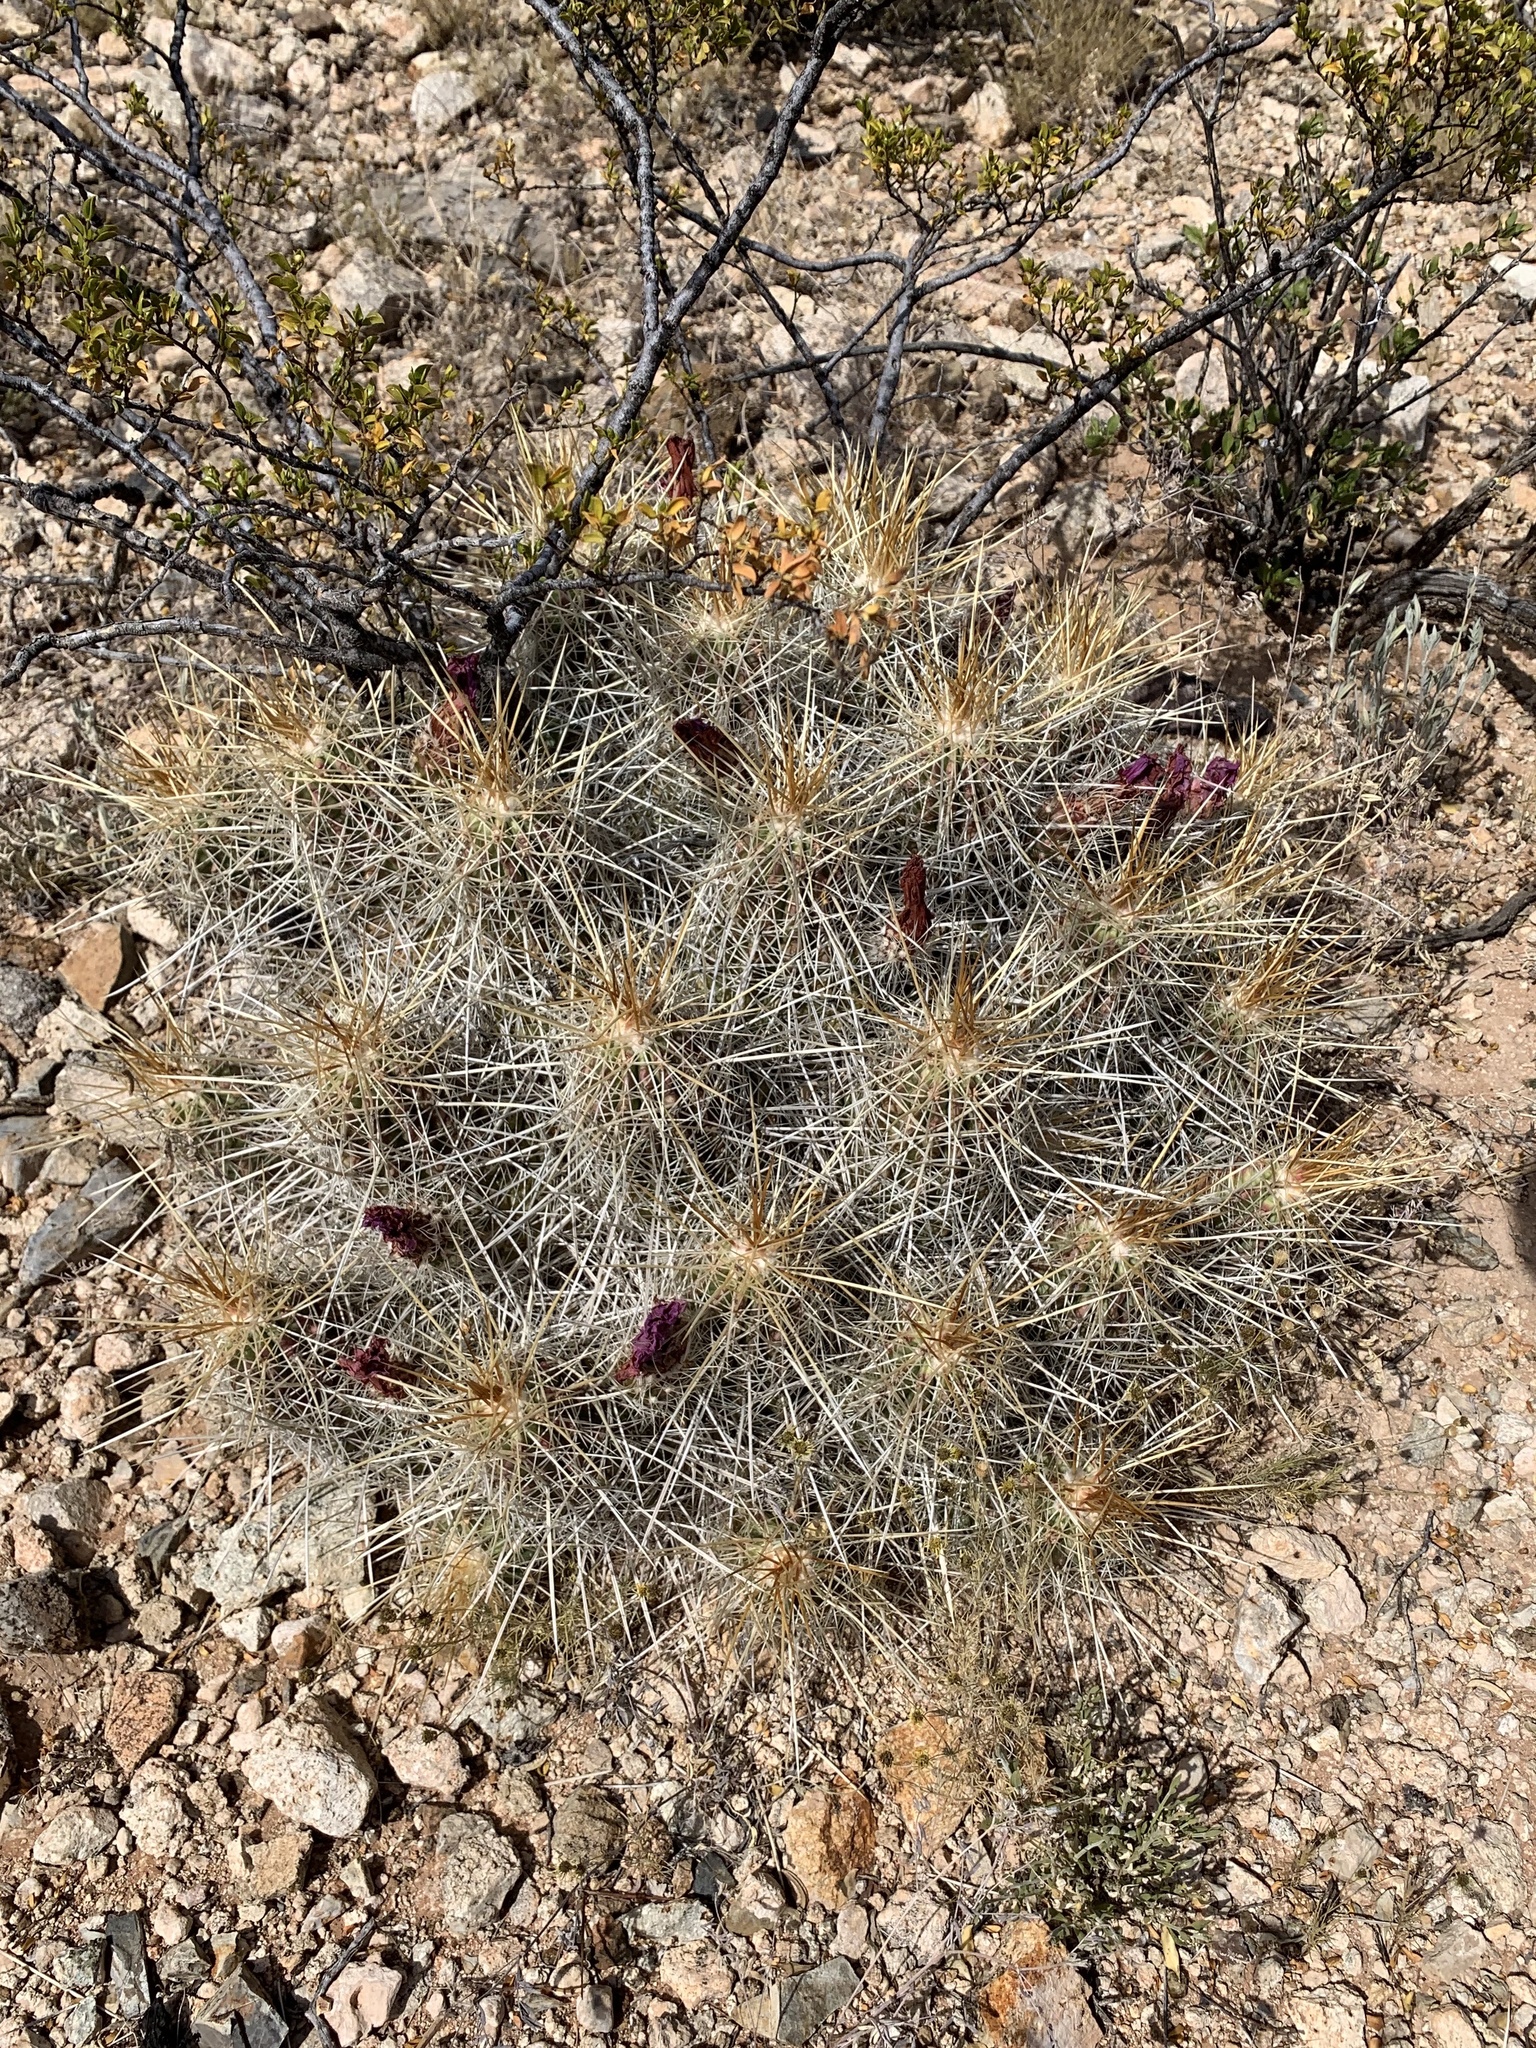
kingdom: Plantae
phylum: Tracheophyta
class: Magnoliopsida
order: Caryophyllales
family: Cactaceae
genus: Echinocereus
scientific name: Echinocereus stramineus
